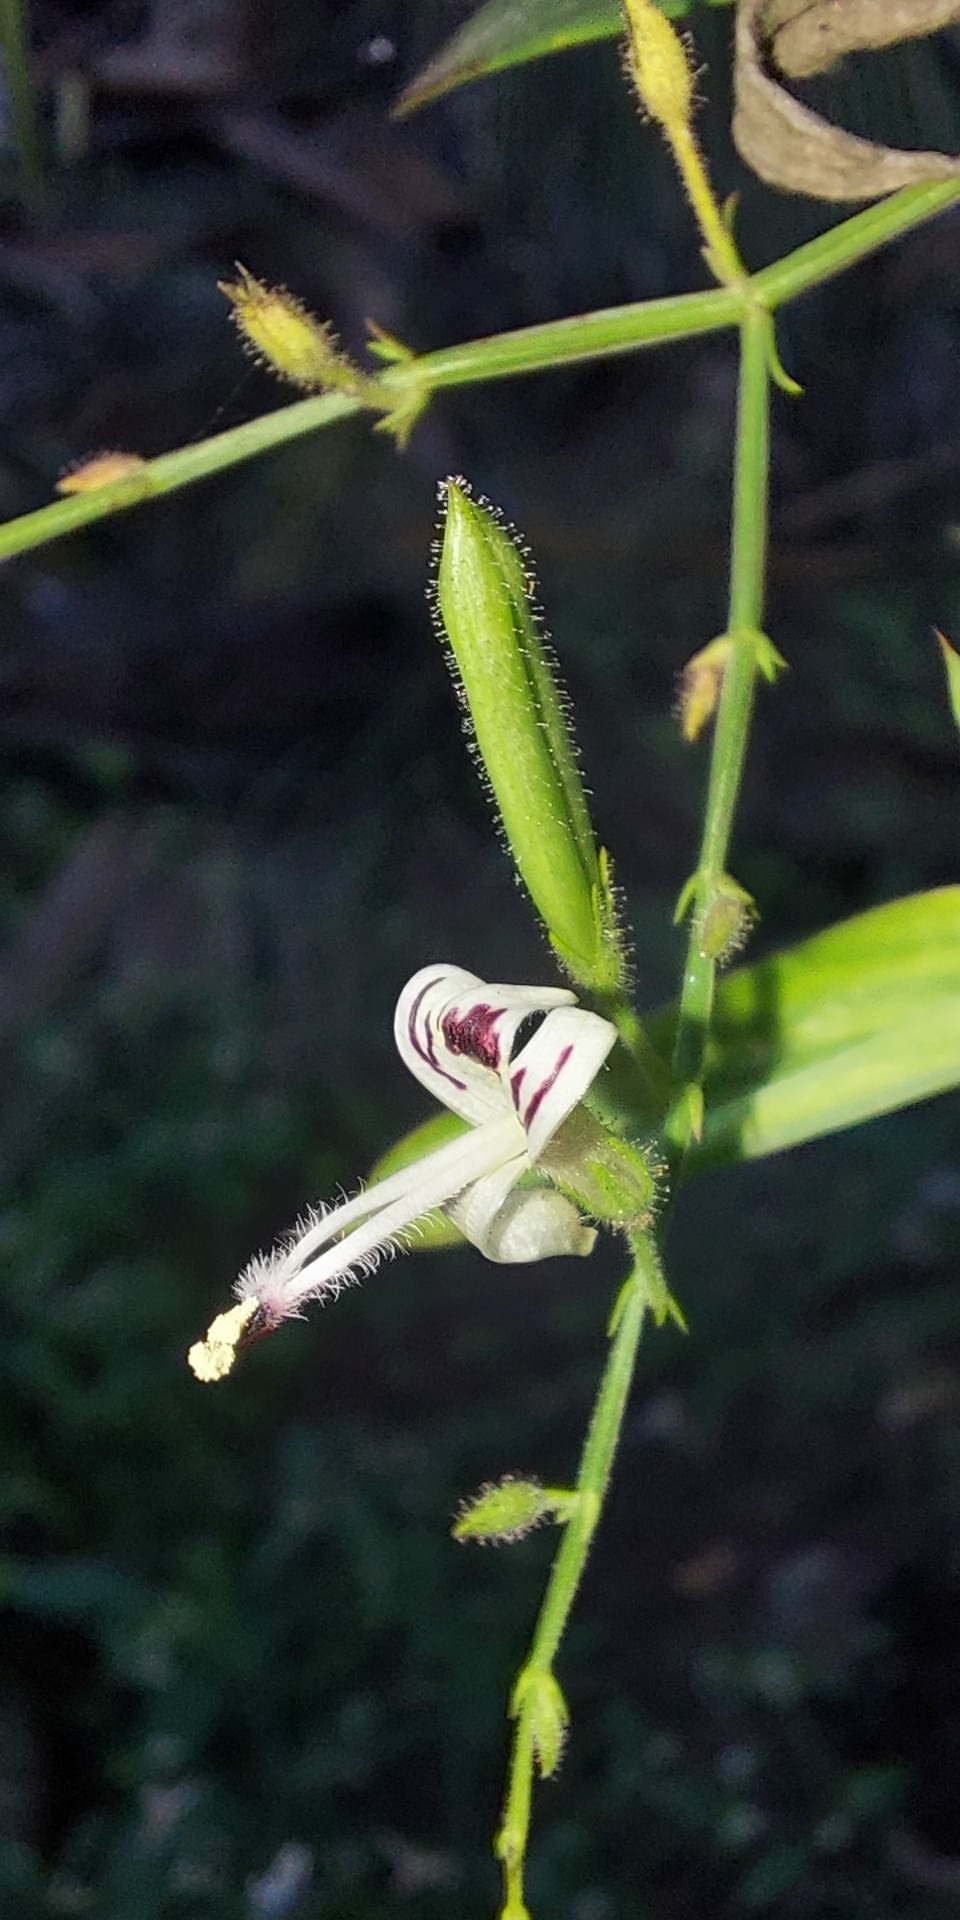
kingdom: Plantae
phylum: Tracheophyta
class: Magnoliopsida
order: Lamiales
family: Acanthaceae
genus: Andrographis
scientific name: Andrographis paniculata
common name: Green chireta
